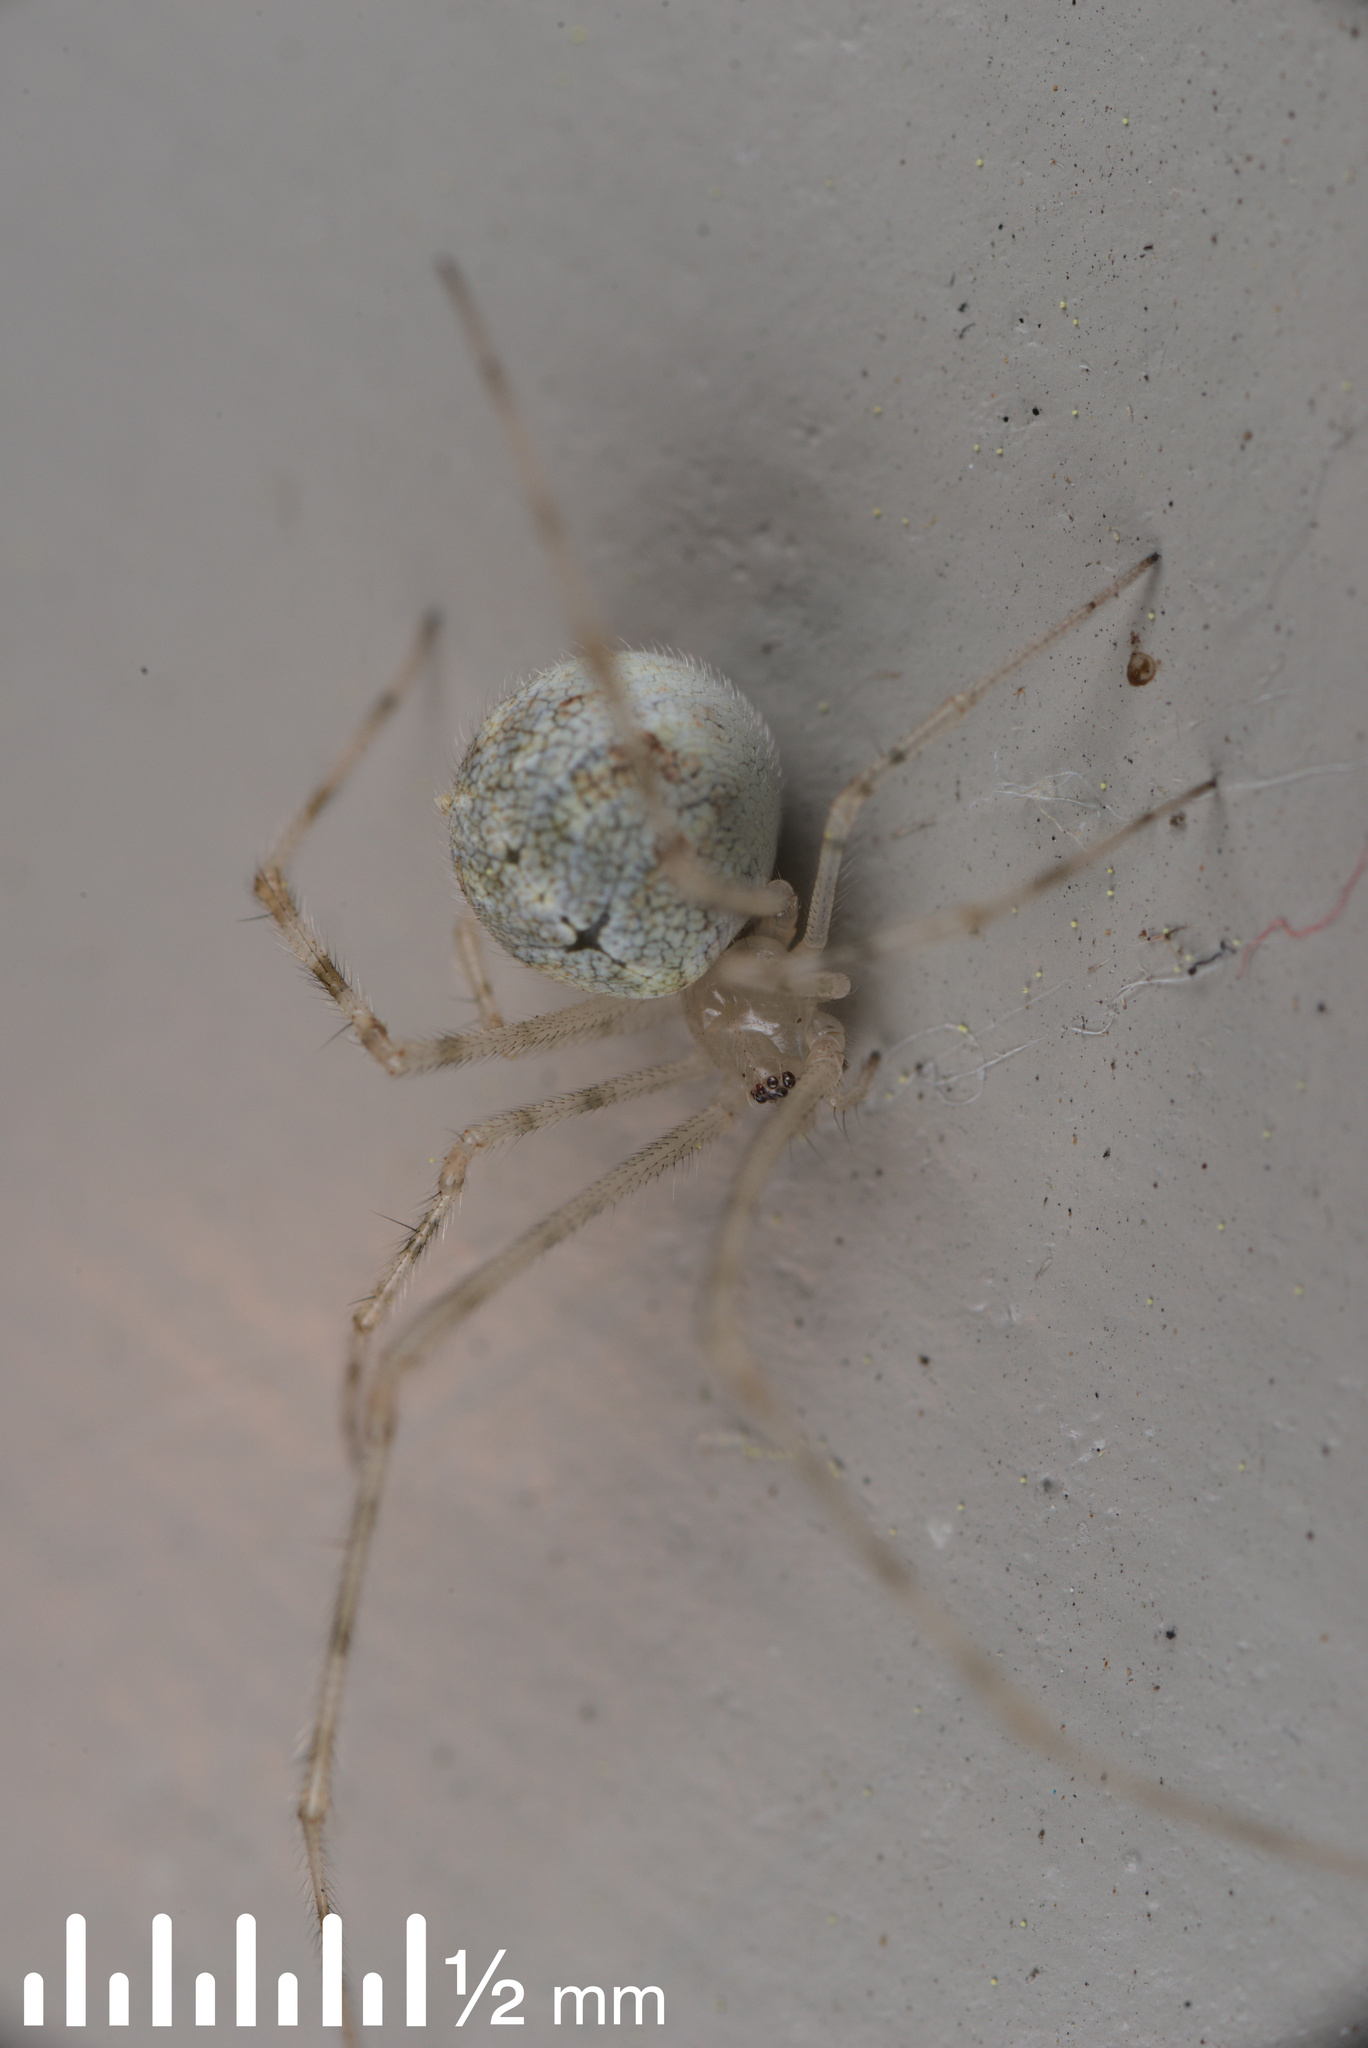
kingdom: Animalia
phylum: Arthropoda
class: Arachnida
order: Araneae
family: Theridiidae
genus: Cryptachaea
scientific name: Cryptachaea gigantipes
